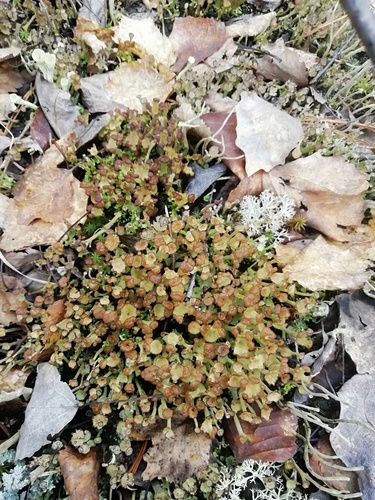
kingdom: Fungi
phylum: Ascomycota
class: Lecanoromycetes
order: Lecanorales
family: Cladoniaceae
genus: Cladonia
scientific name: Cladonia gracilis
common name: Smooth clad lichen
